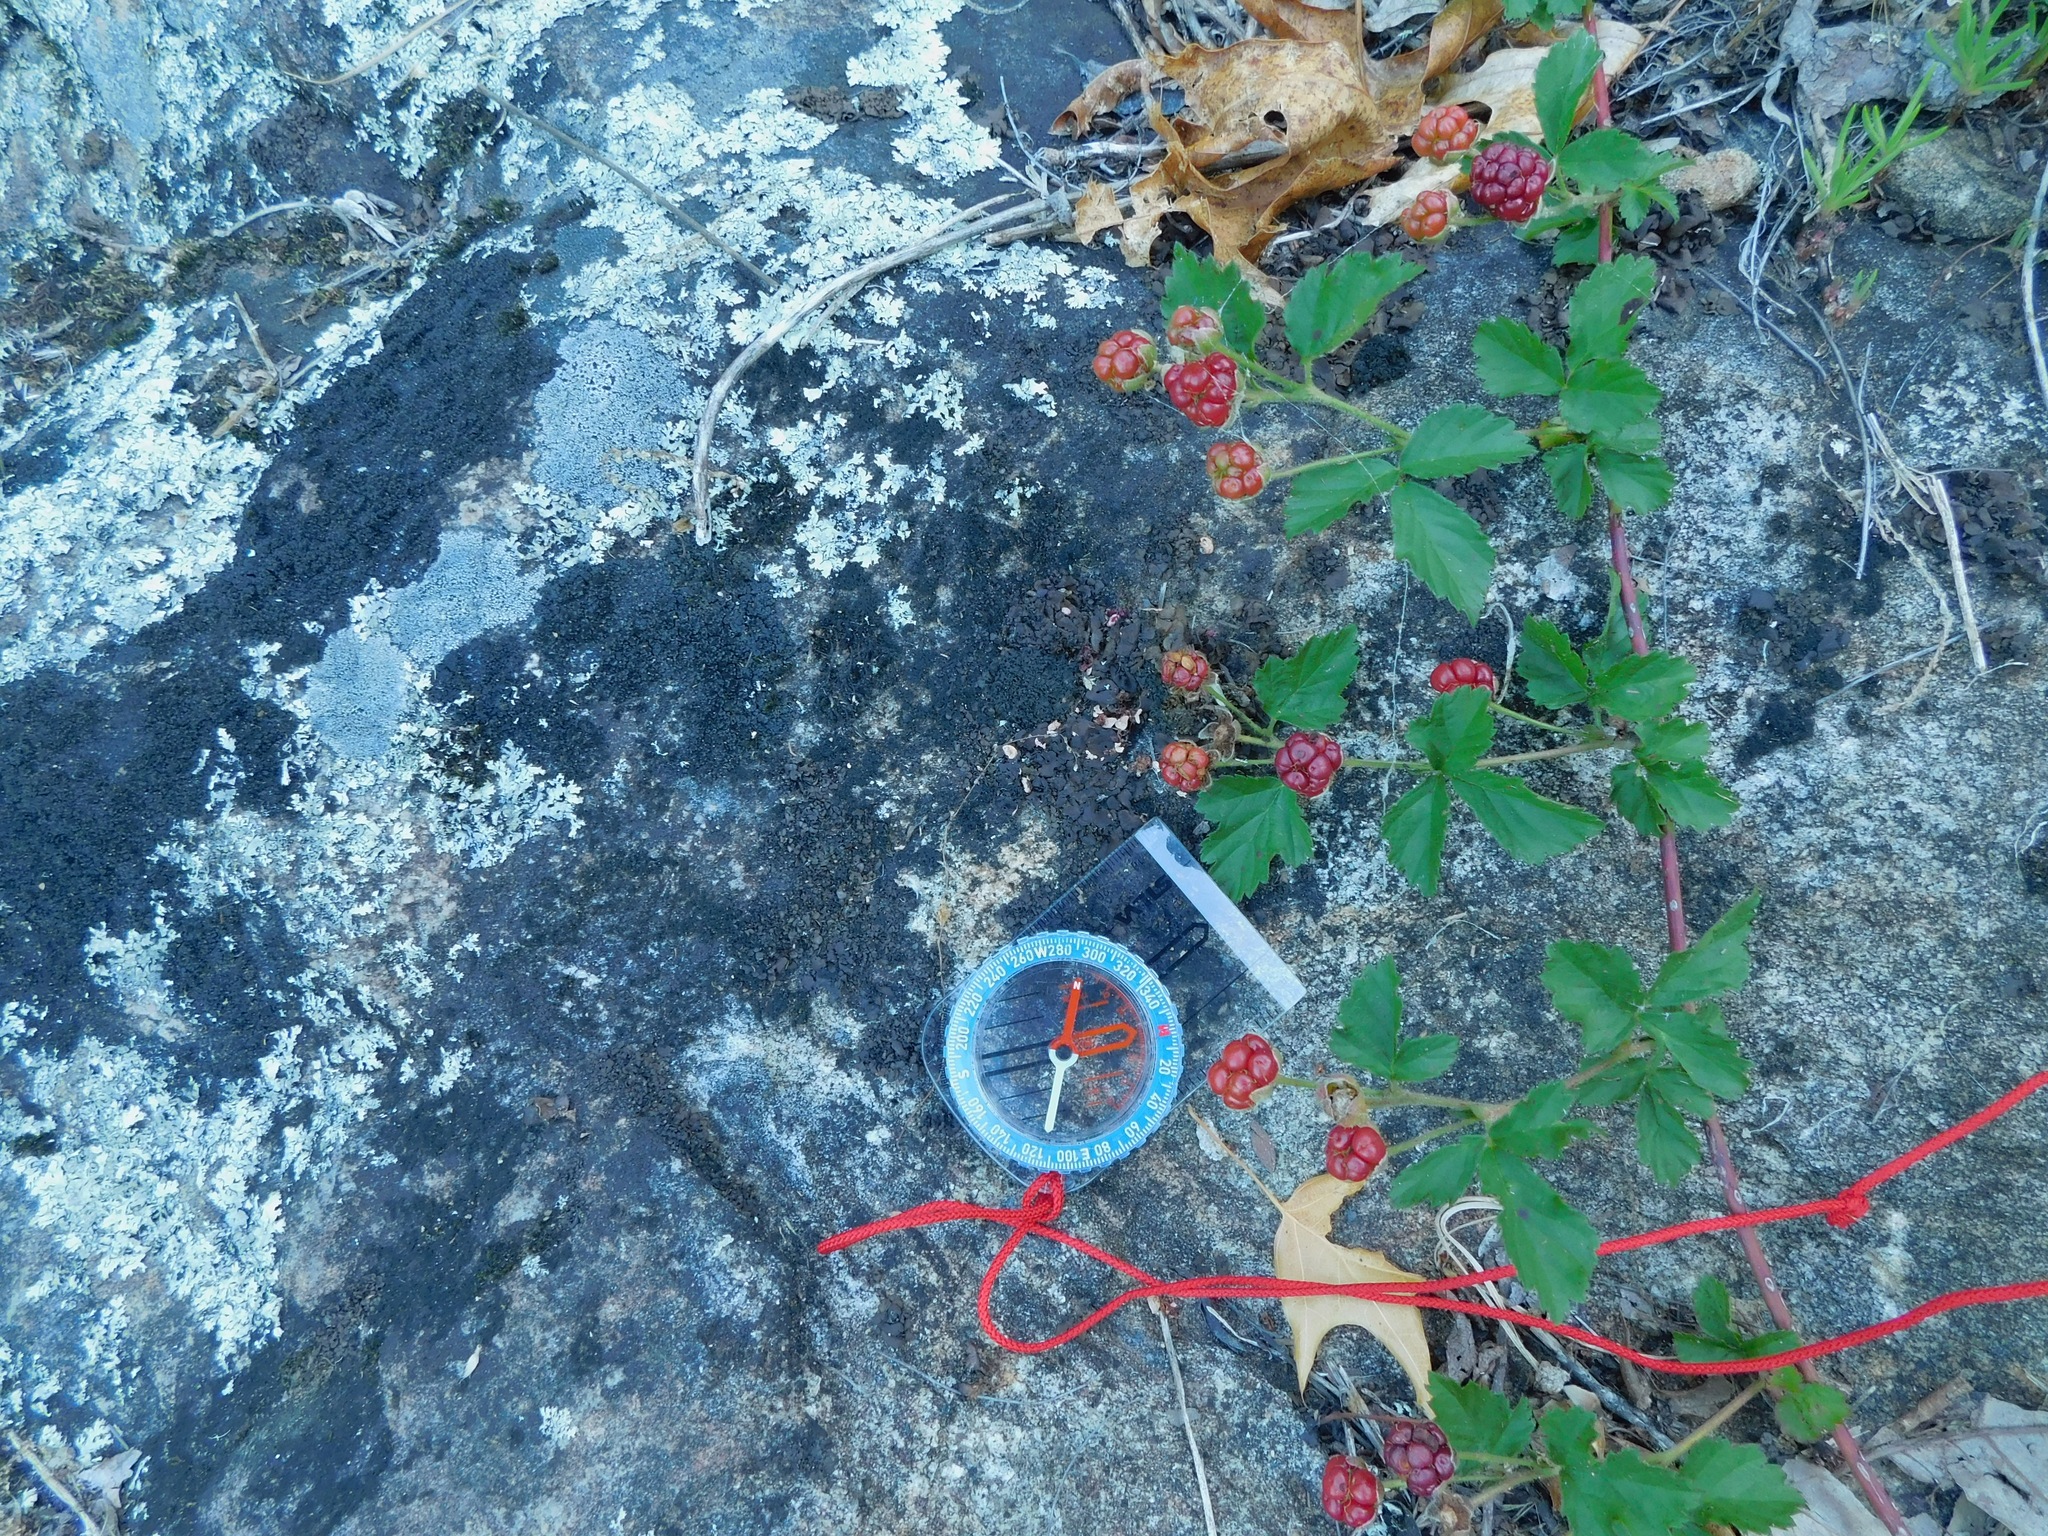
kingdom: Fungi
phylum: Ascomycota
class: Eurotiomycetes
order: Verrucariales
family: Verrucariaceae
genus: Dermatocarpon
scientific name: Dermatocarpon muhlenbergii
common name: Muhlenberg's stippleback lichen
